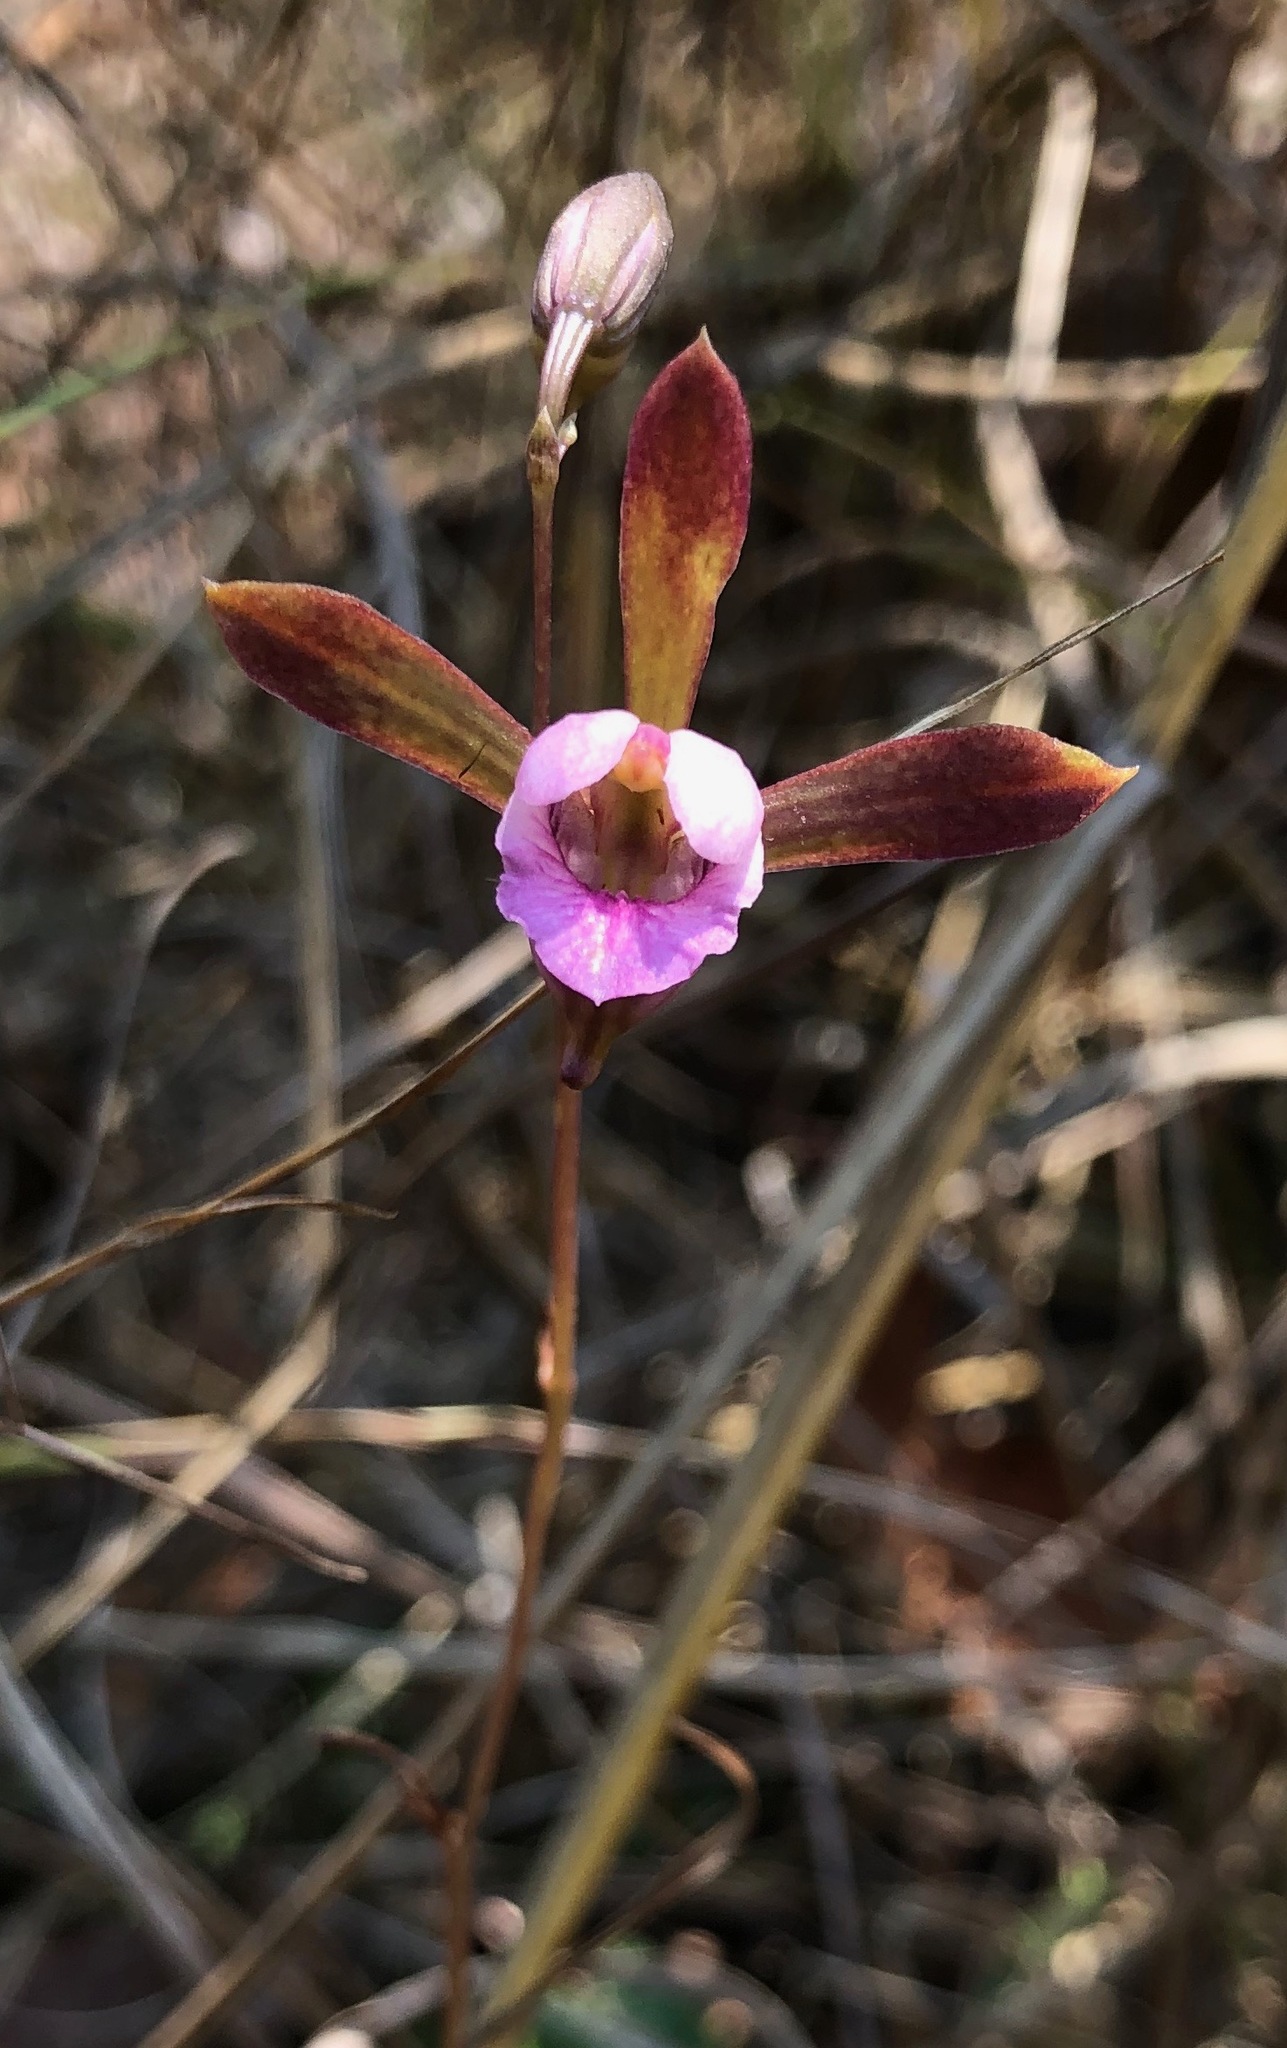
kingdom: Plantae
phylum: Tracheophyta
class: Liliopsida
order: Asparagales
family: Orchidaceae
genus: Eulophia
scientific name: Eulophia katangensis
